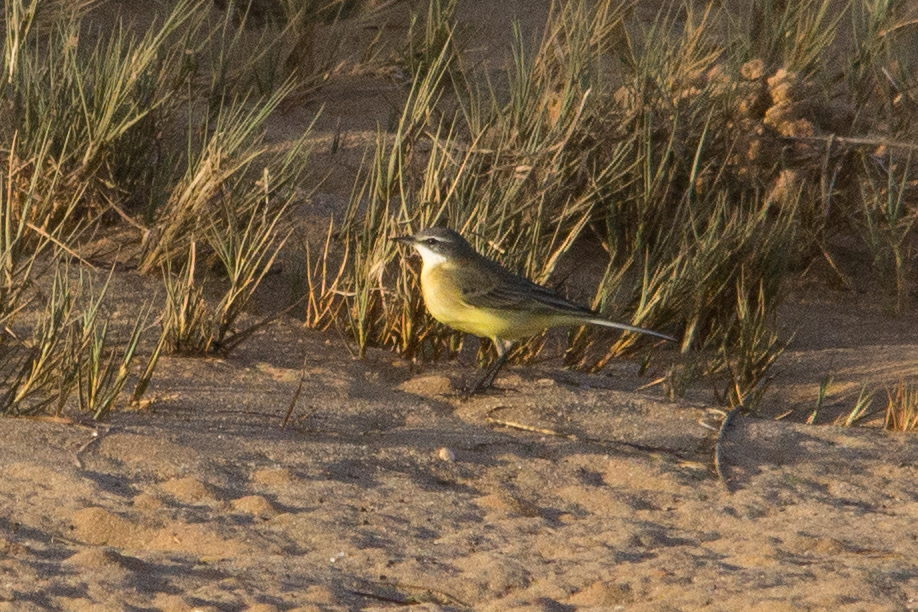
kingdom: Animalia
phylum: Chordata
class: Aves
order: Passeriformes
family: Motacillidae
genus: Motacilla
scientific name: Motacilla flava
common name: Western yellow wagtail
